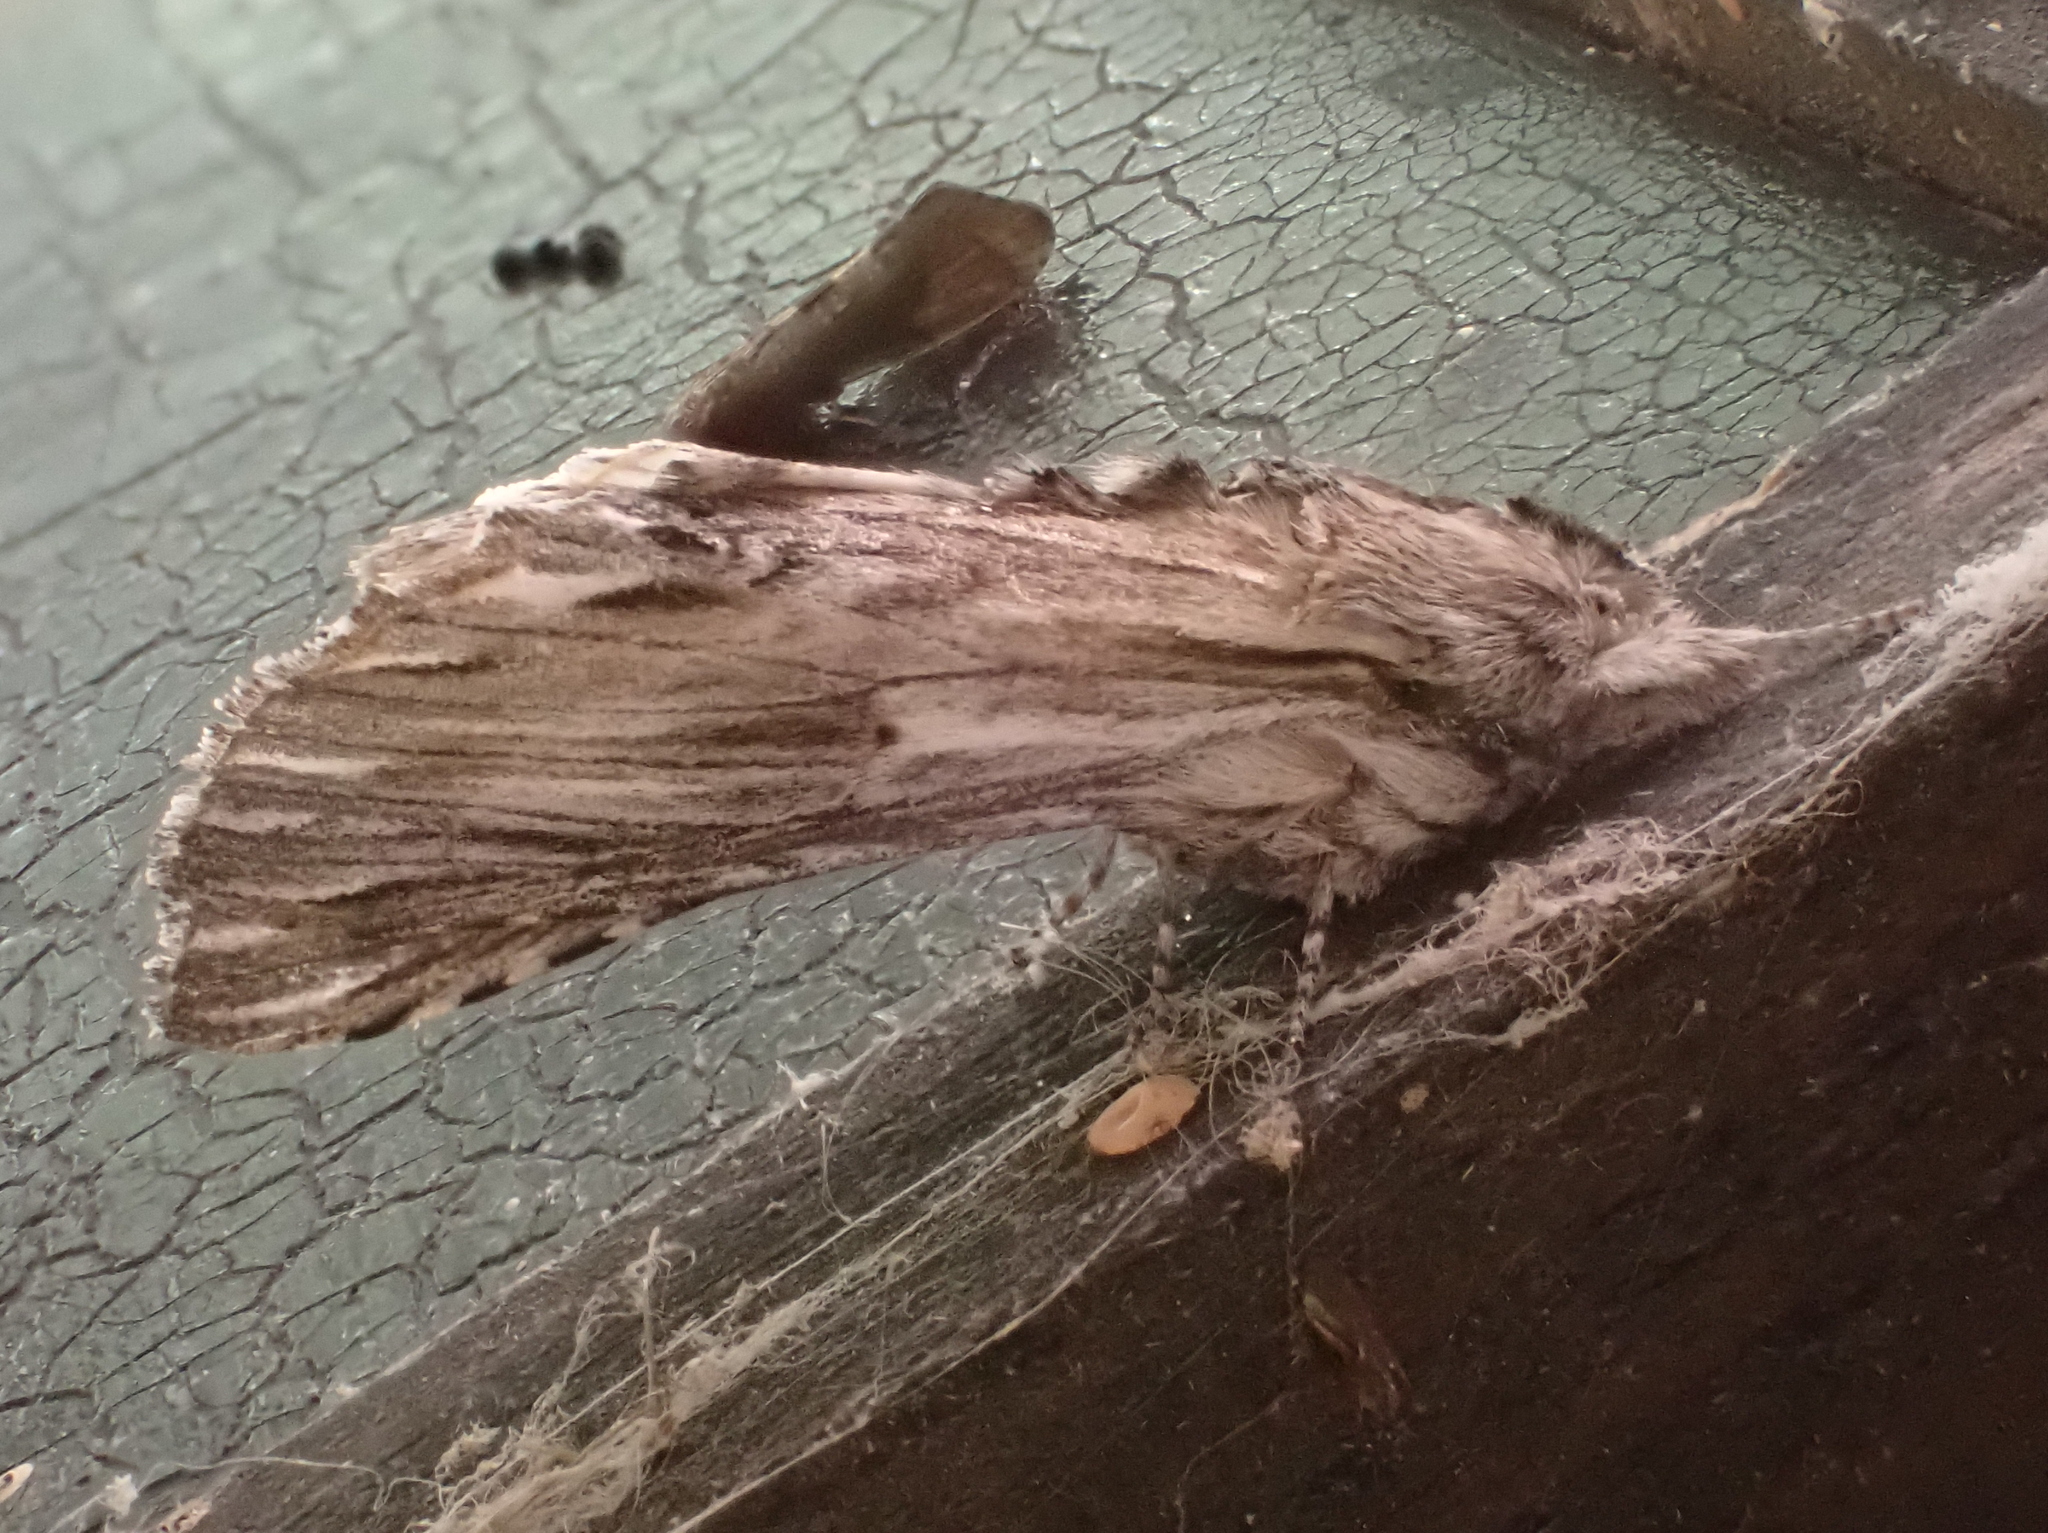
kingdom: Animalia
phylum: Arthropoda
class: Insecta
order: Lepidoptera
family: Notodontidae
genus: Oligocentria
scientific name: Oligocentria Ianassa lignicolor
